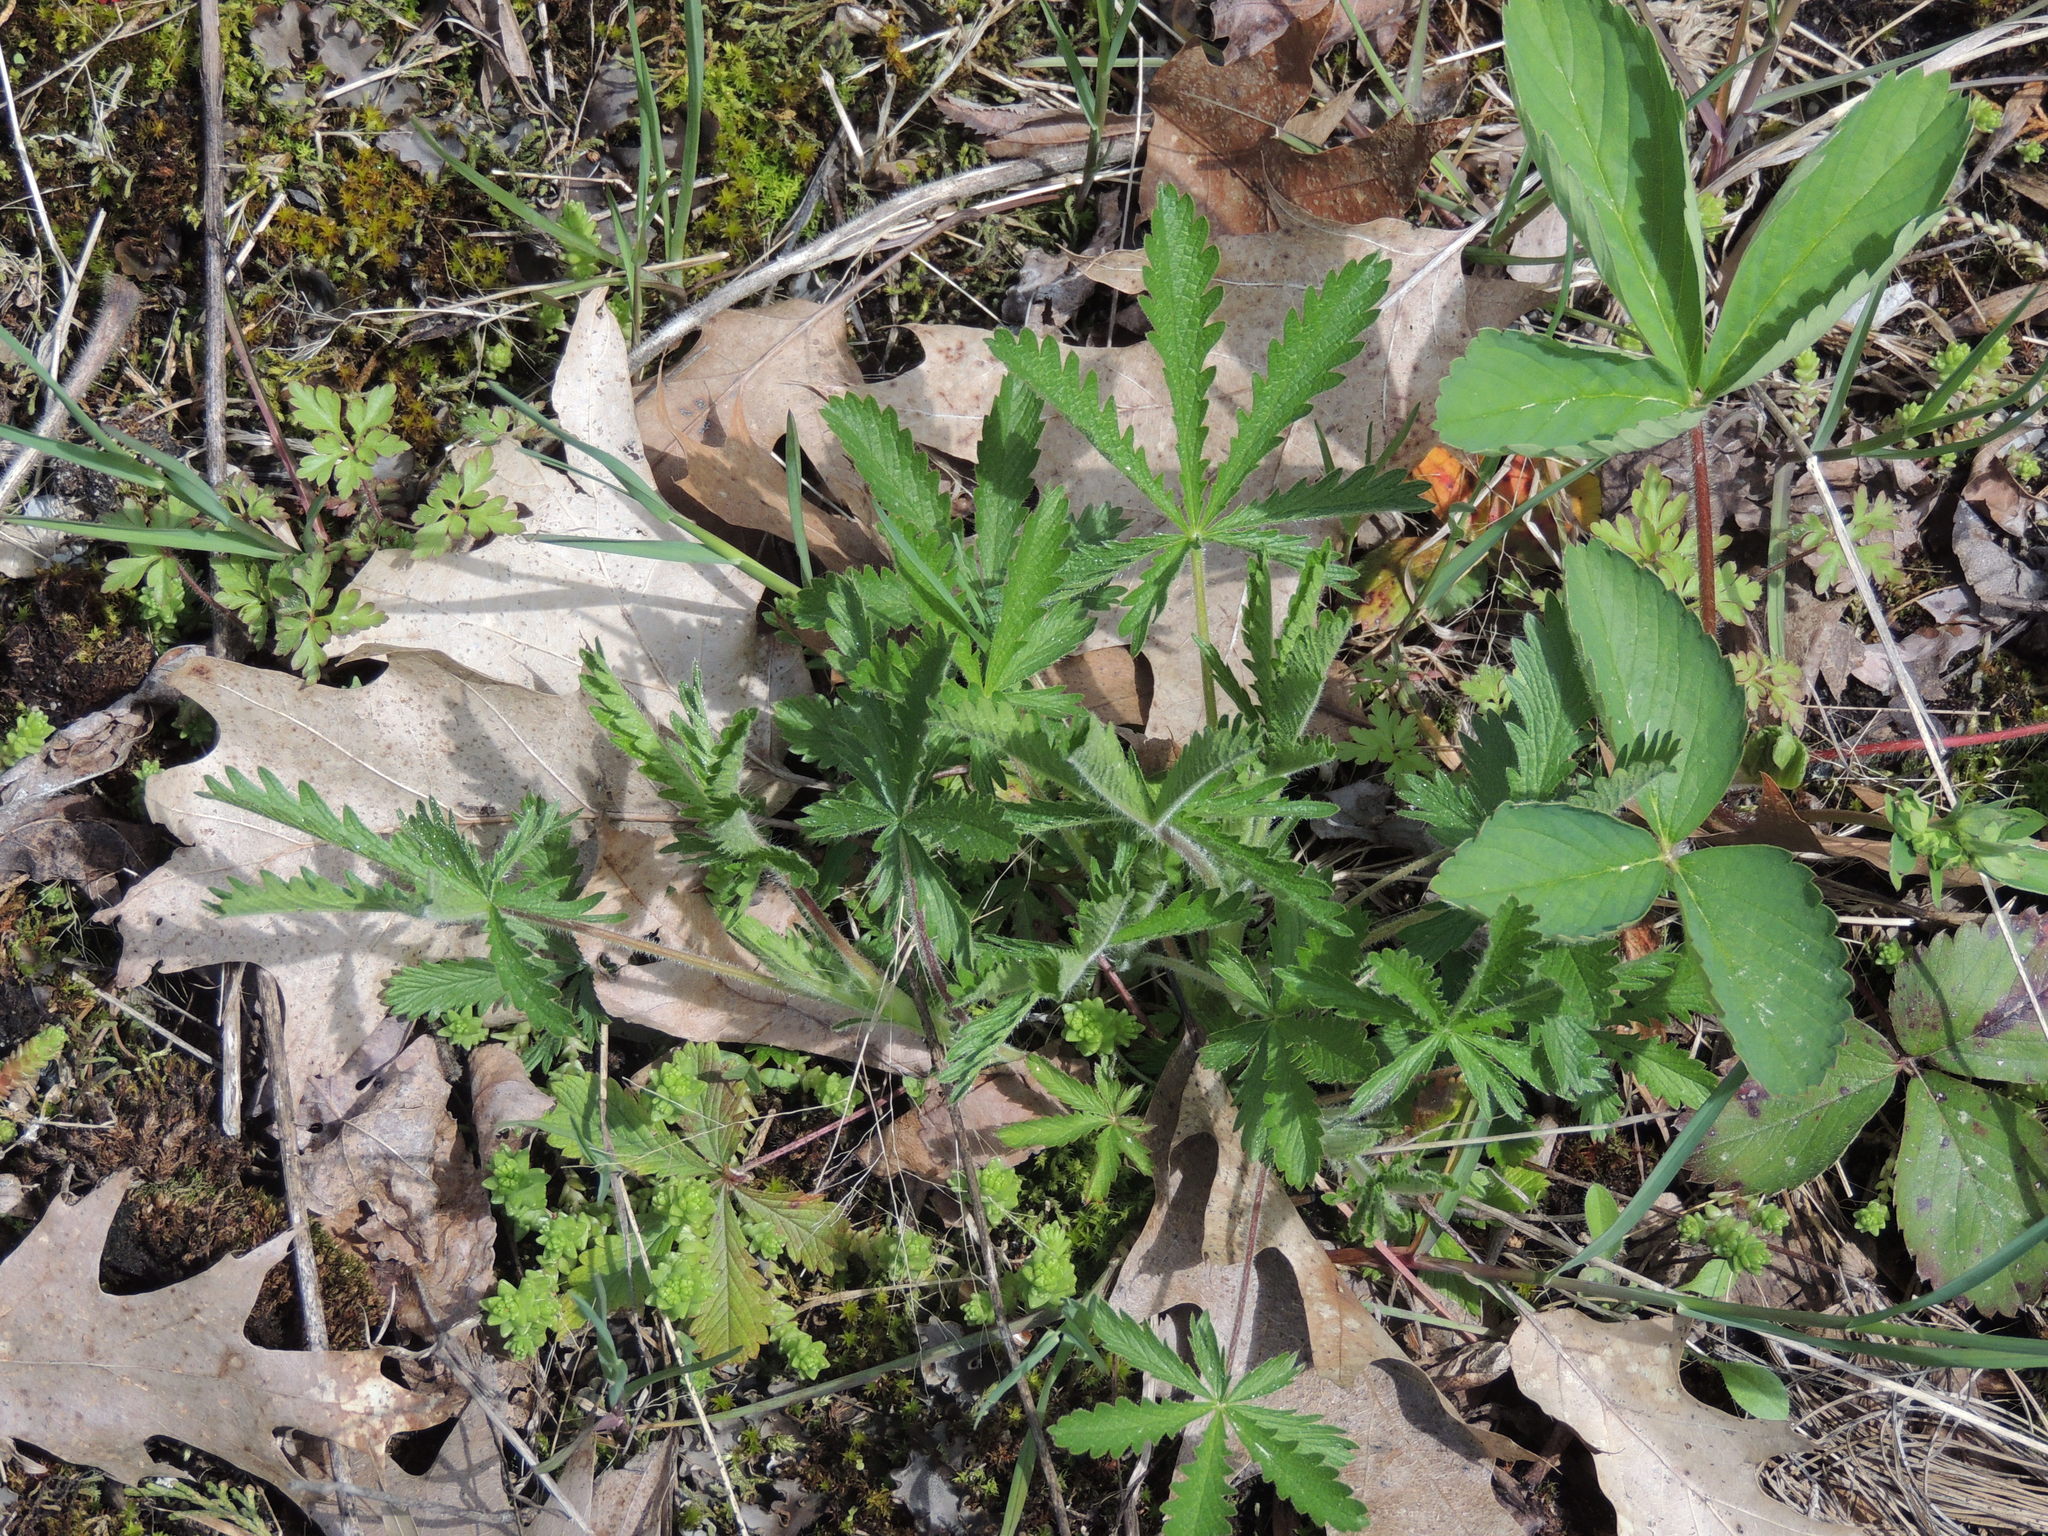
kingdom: Plantae
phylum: Tracheophyta
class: Magnoliopsida
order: Rosales
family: Rosaceae
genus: Potentilla
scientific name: Potentilla recta
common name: Sulphur cinquefoil
